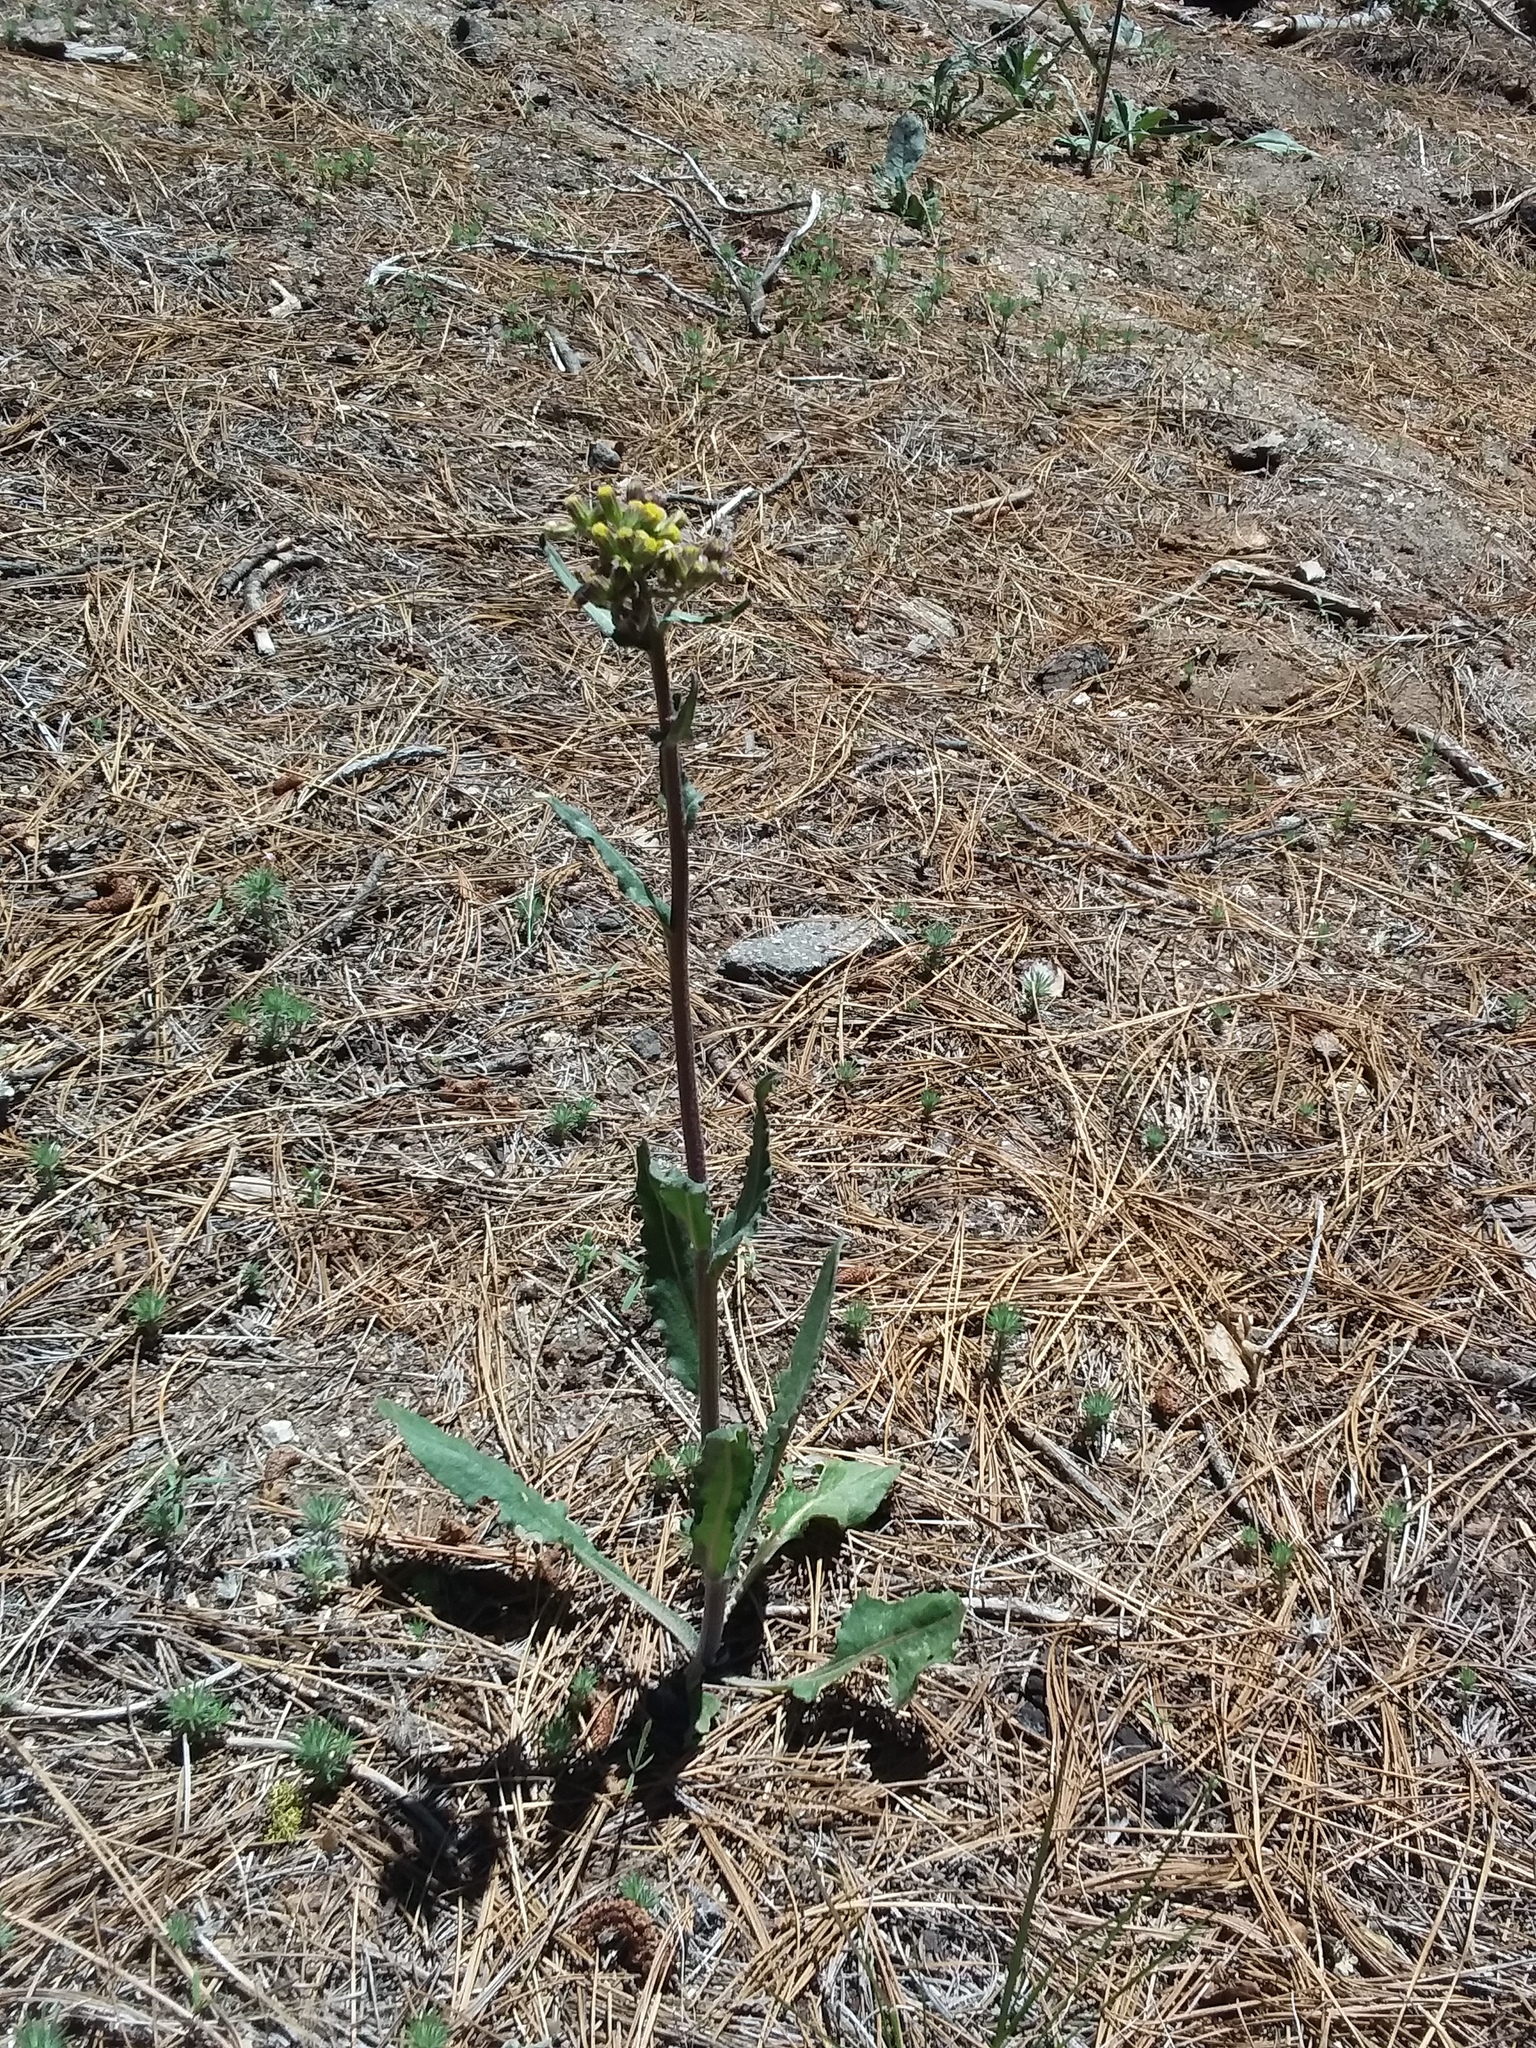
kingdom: Plantae
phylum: Tracheophyta
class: Magnoliopsida
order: Asterales
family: Asteraceae
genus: Senecio
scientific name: Senecio aronicoides
